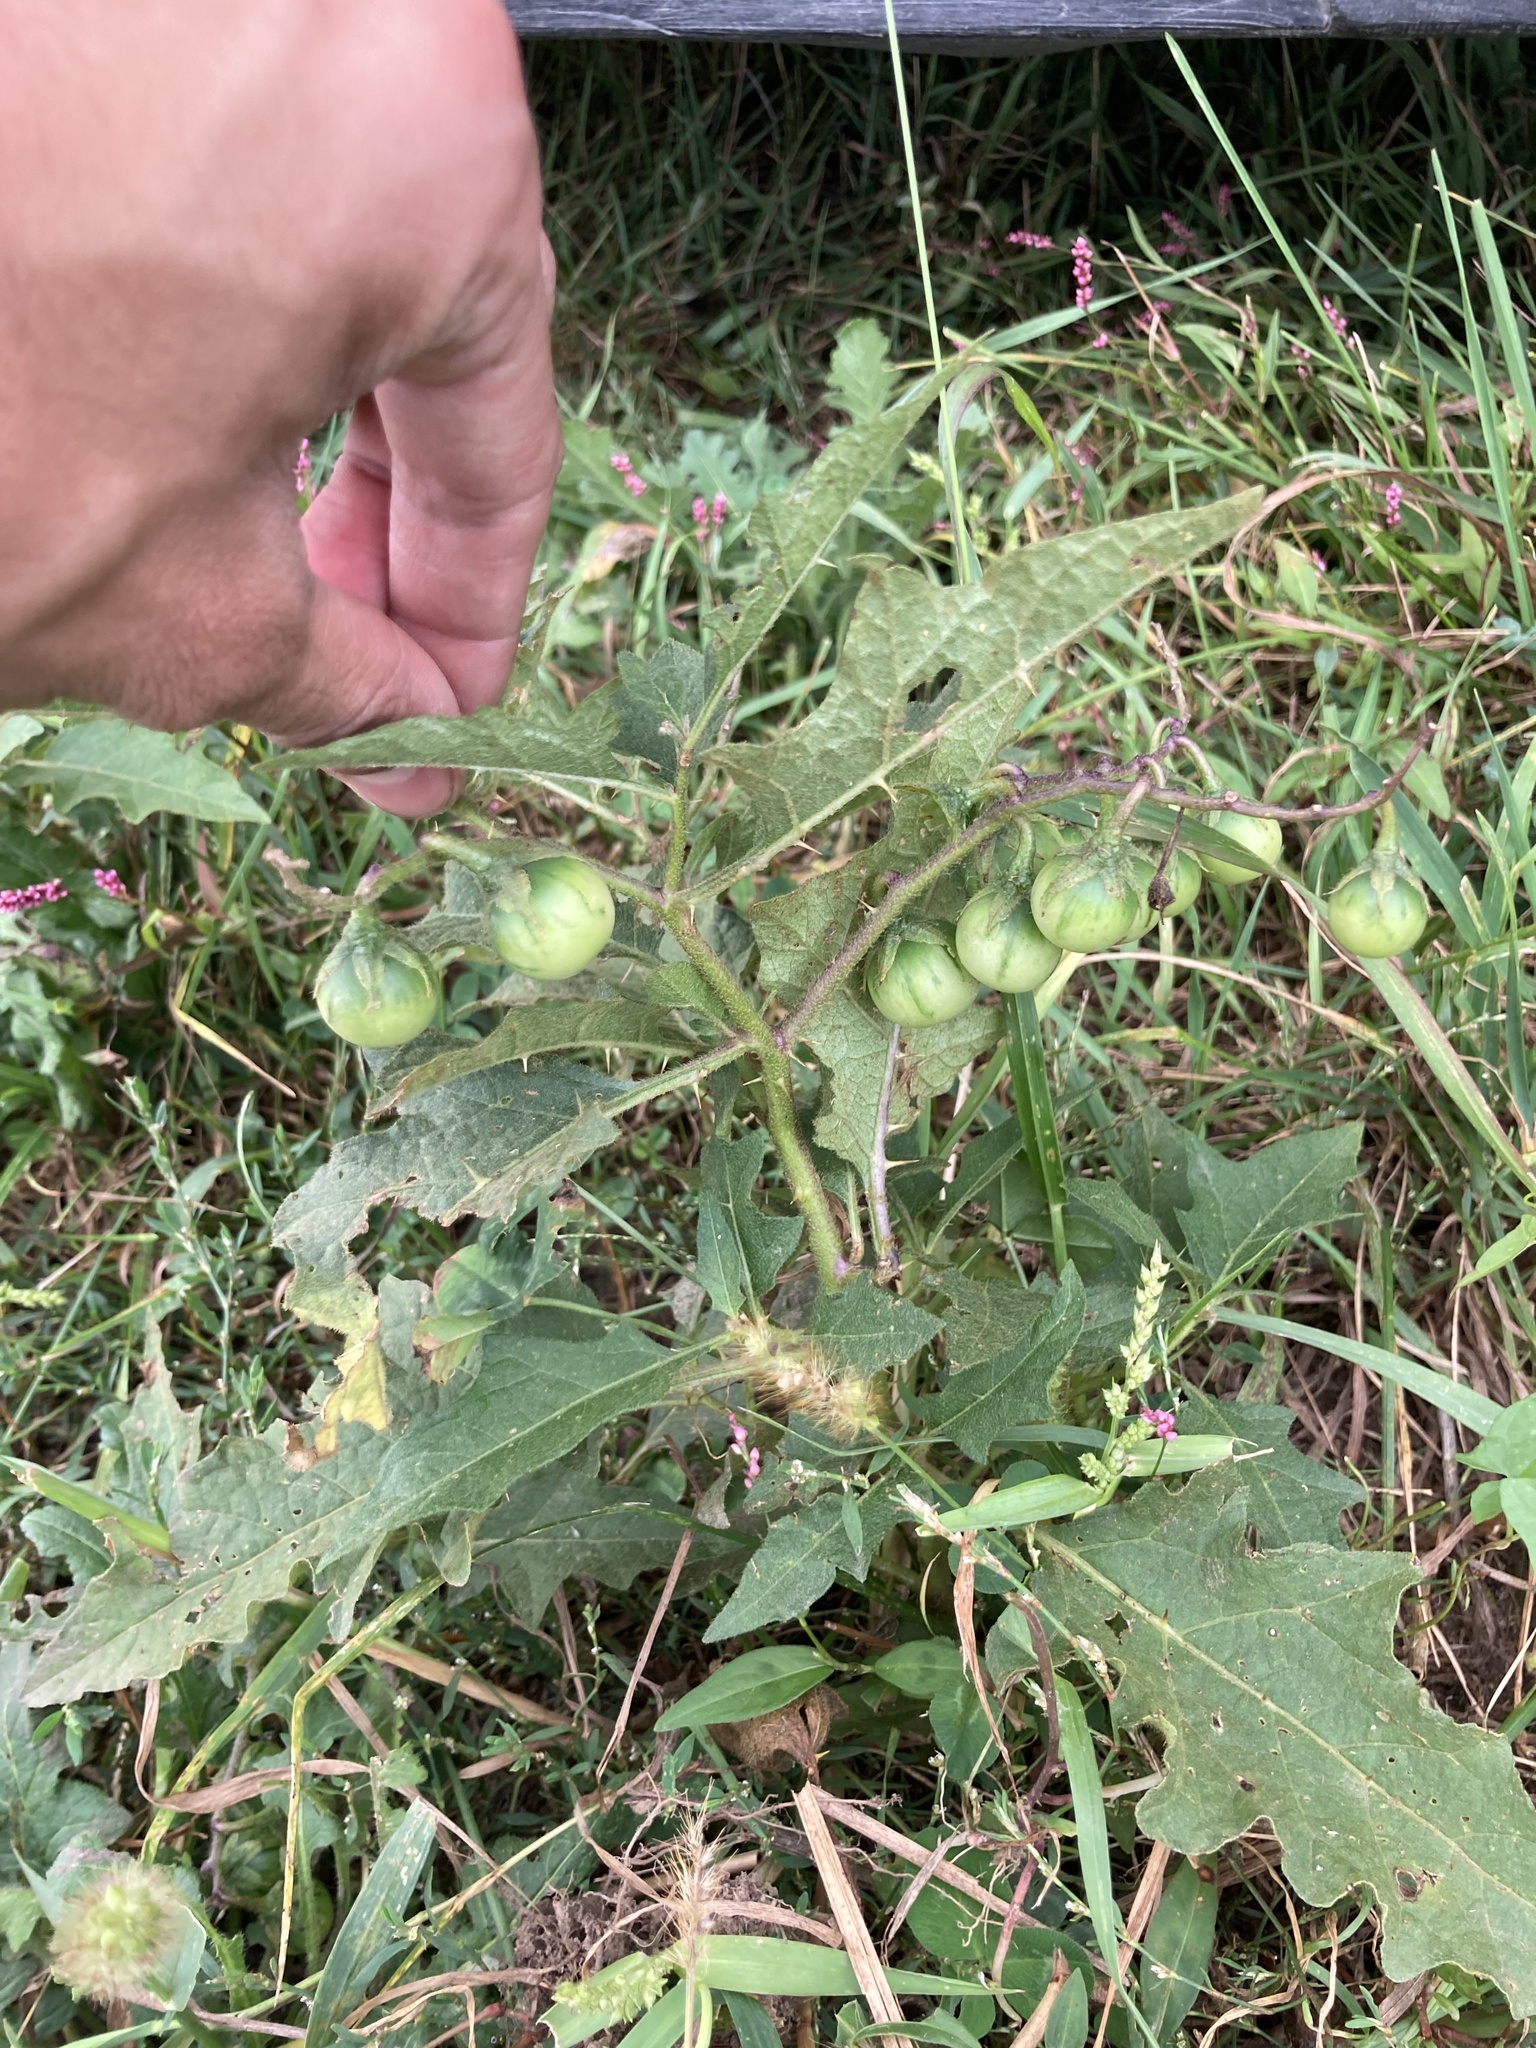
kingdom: Plantae
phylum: Tracheophyta
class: Magnoliopsida
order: Solanales
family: Solanaceae
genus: Solanum
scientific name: Solanum carolinense
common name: Horse-nettle
